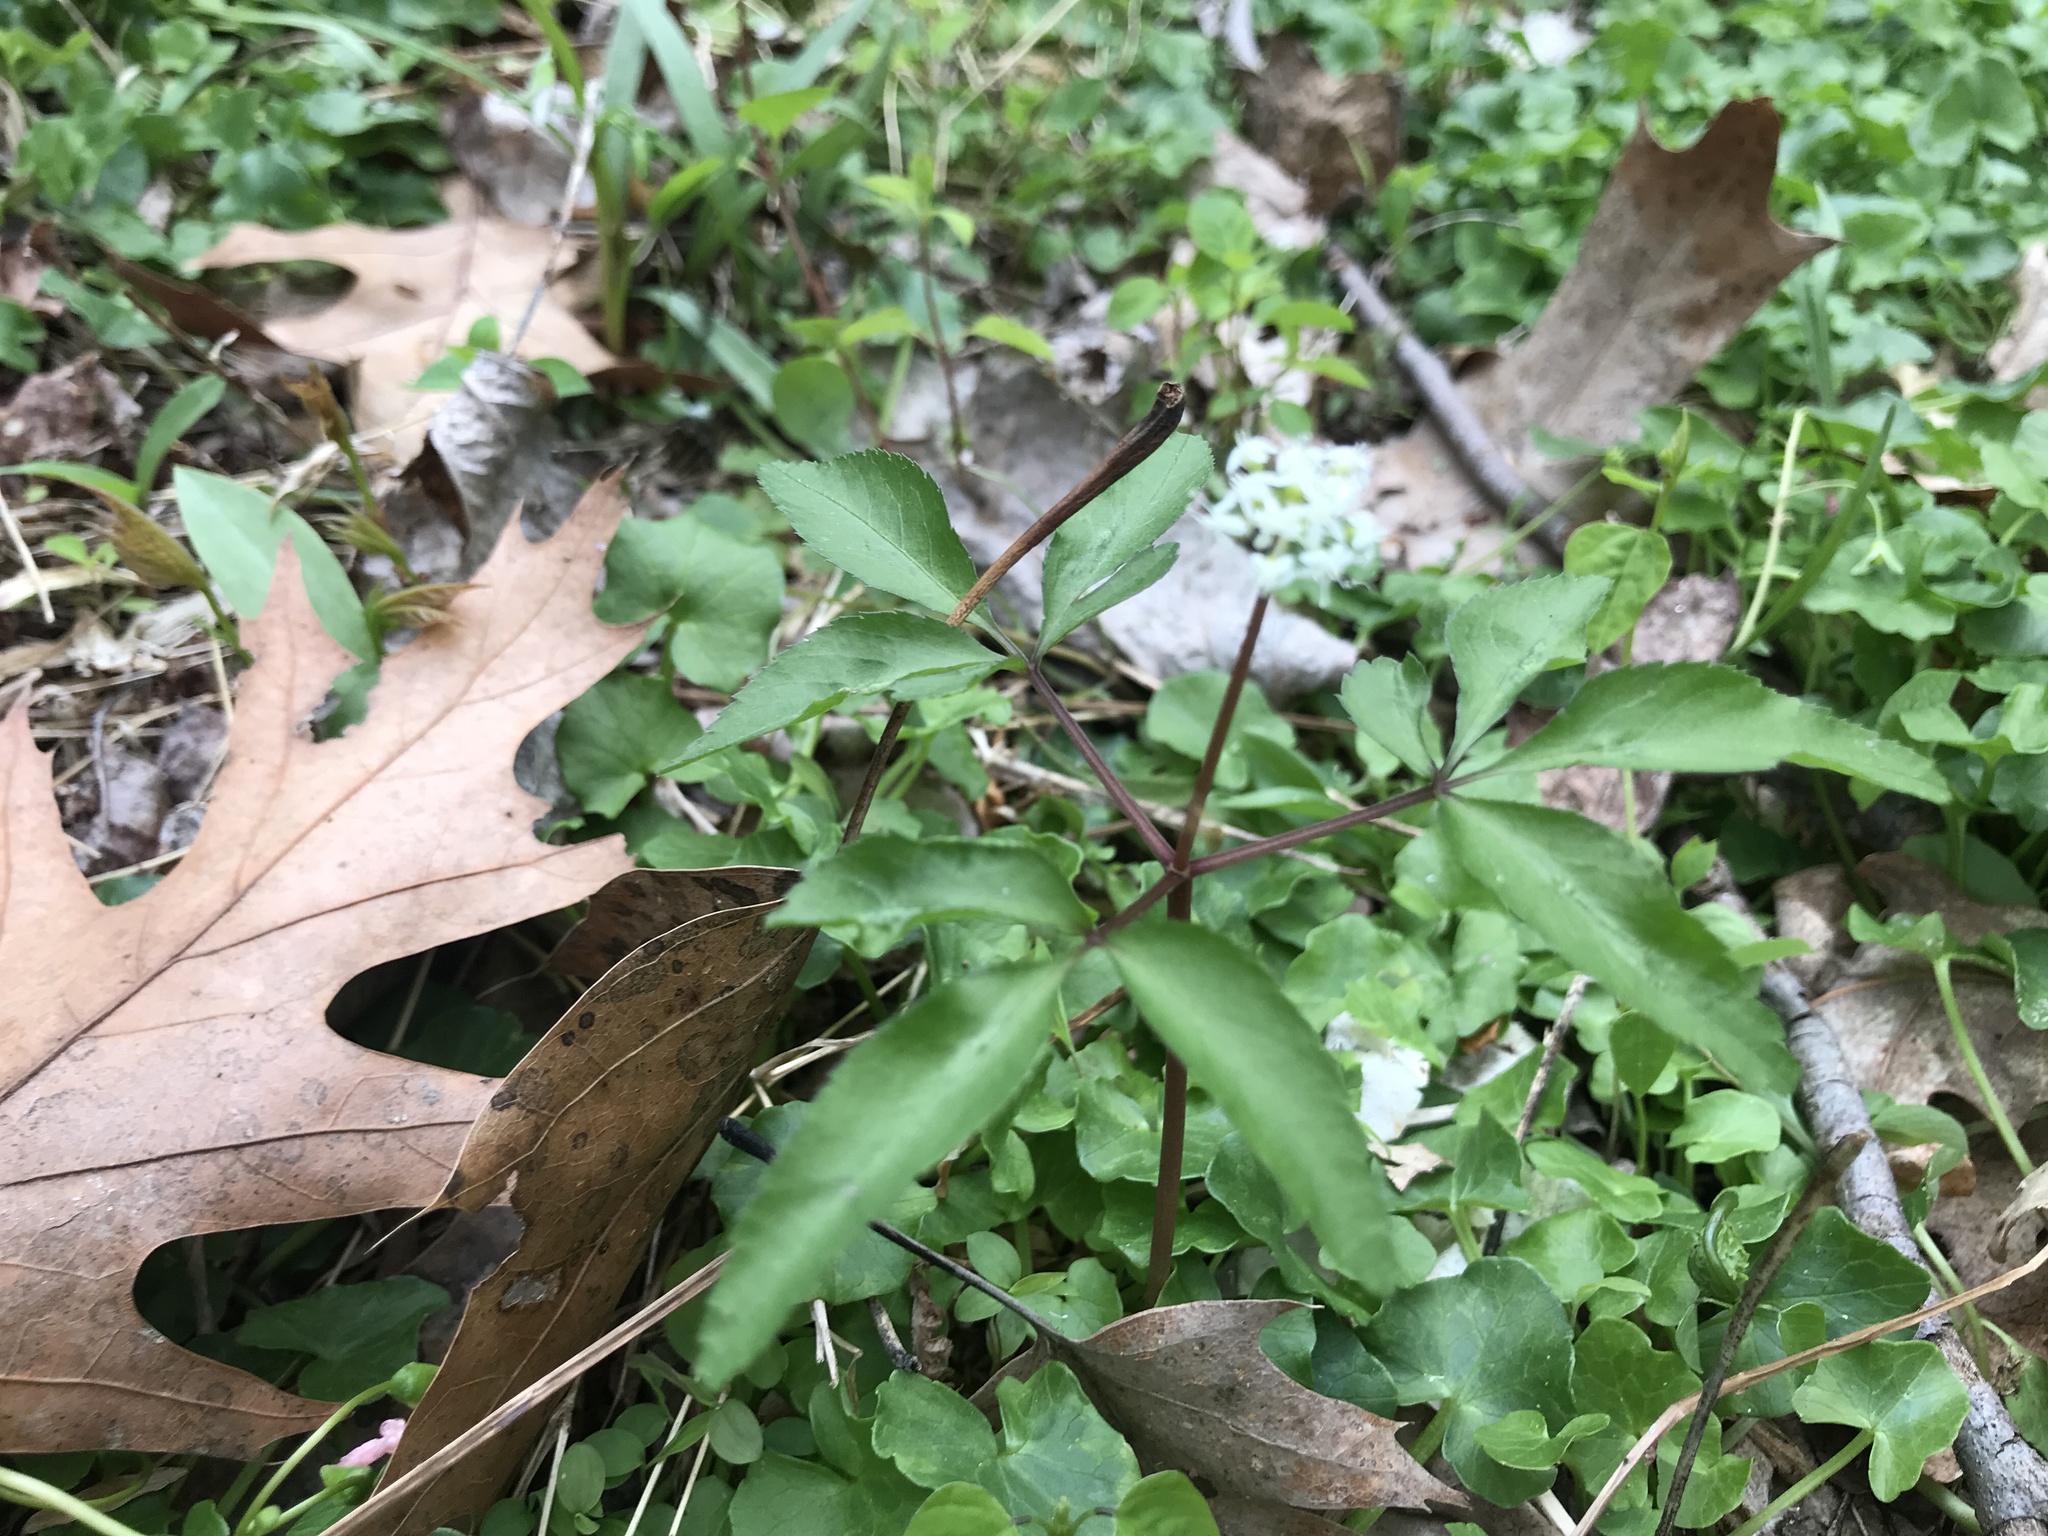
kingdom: Plantae
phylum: Tracheophyta
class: Magnoliopsida
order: Apiales
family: Araliaceae
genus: Panax
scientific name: Panax trifolius
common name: Dwarf ginseng
